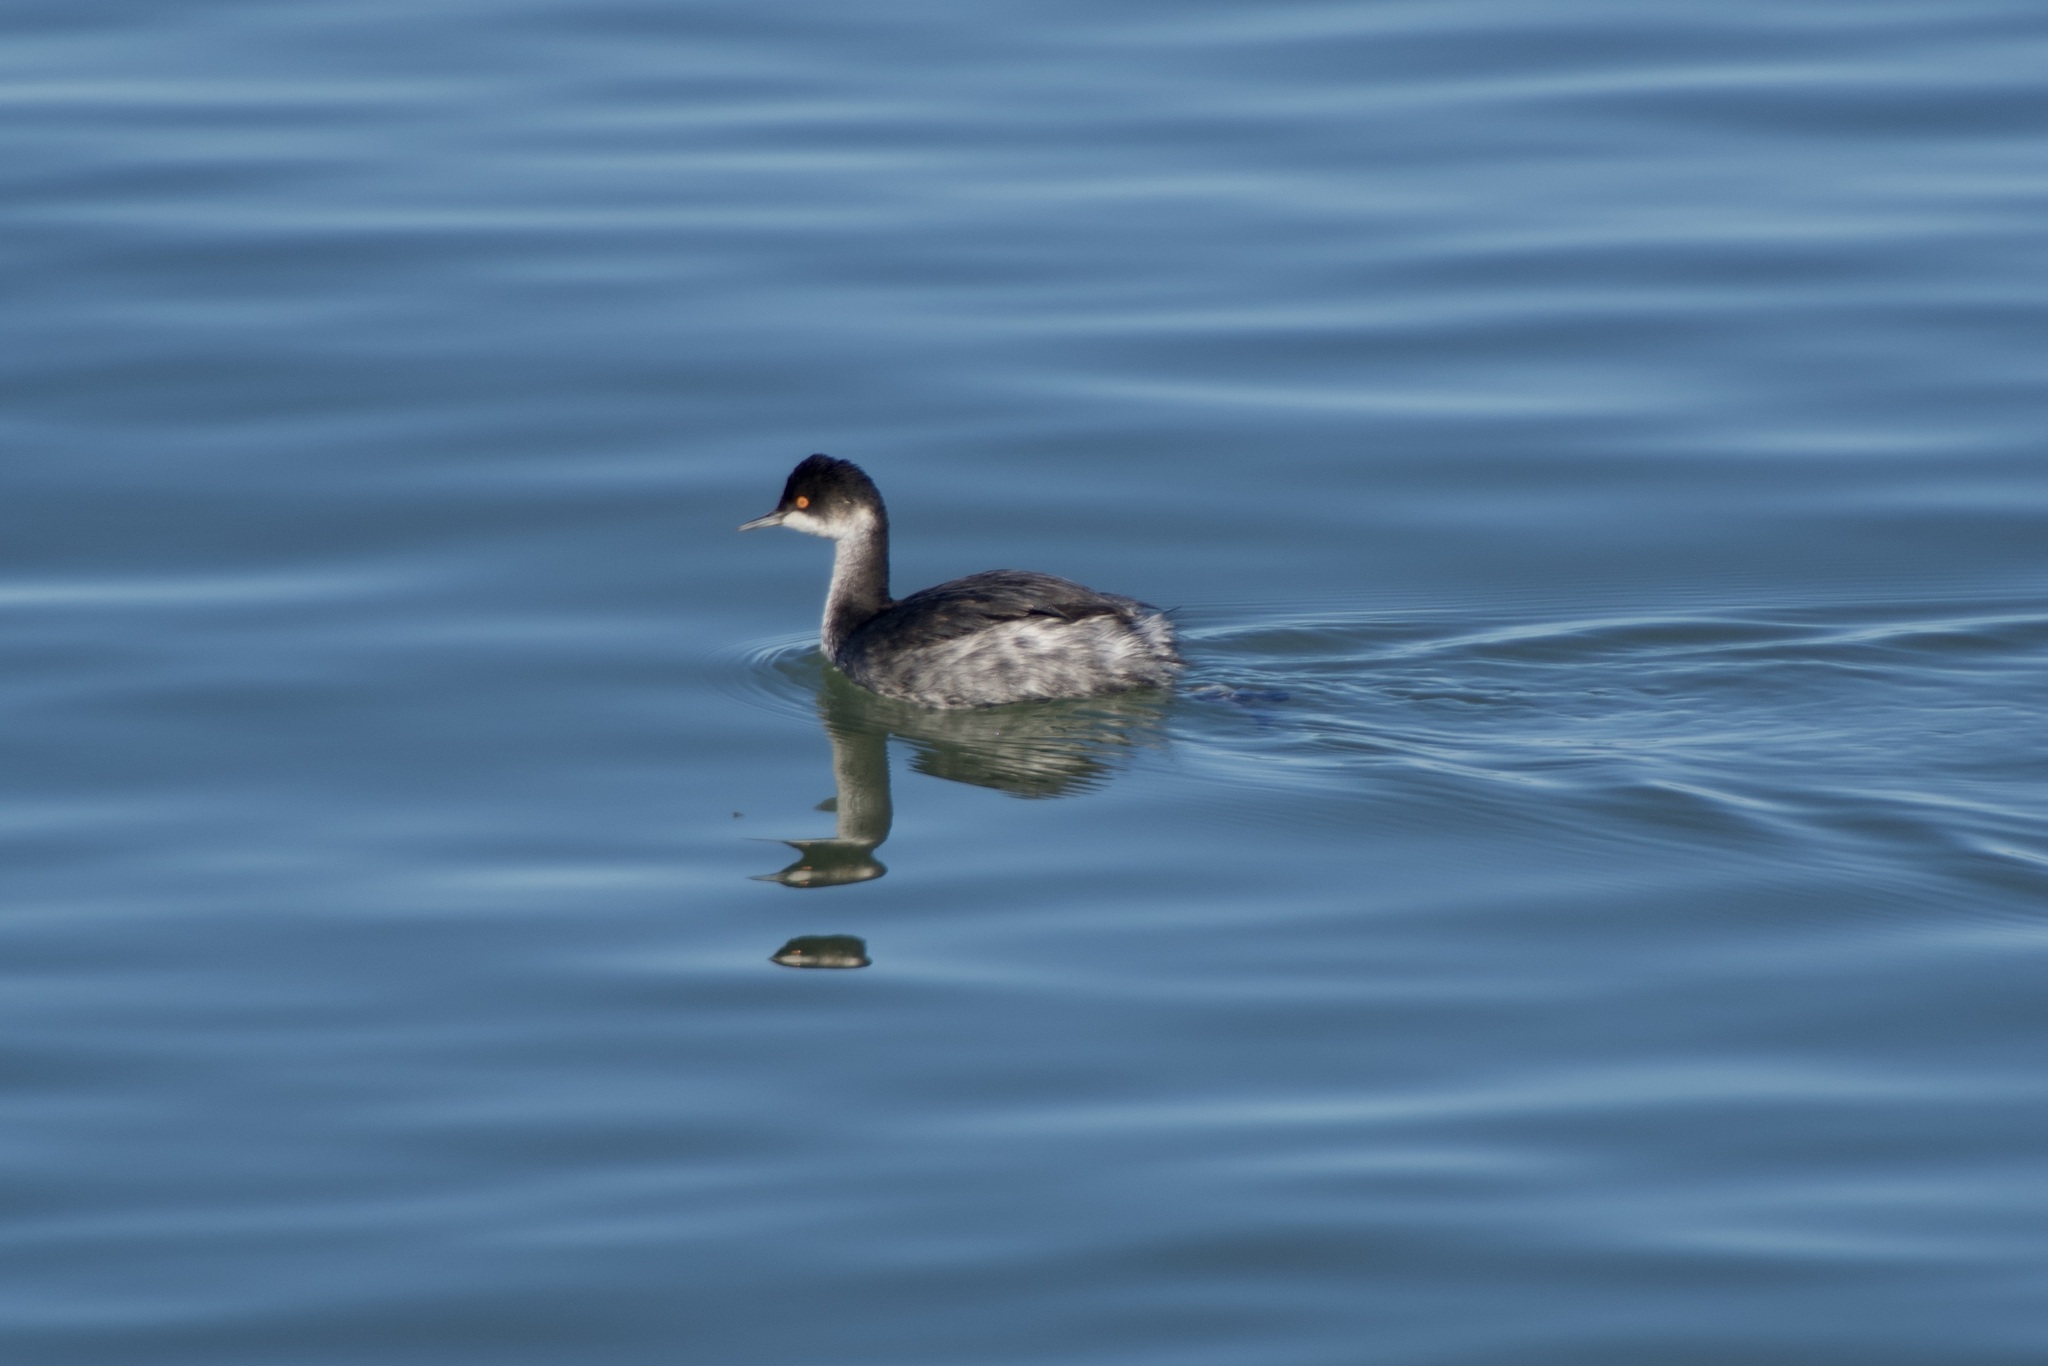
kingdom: Animalia
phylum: Chordata
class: Aves
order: Podicipediformes
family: Podicipedidae
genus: Podiceps
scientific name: Podiceps nigricollis
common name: Black-necked grebe
